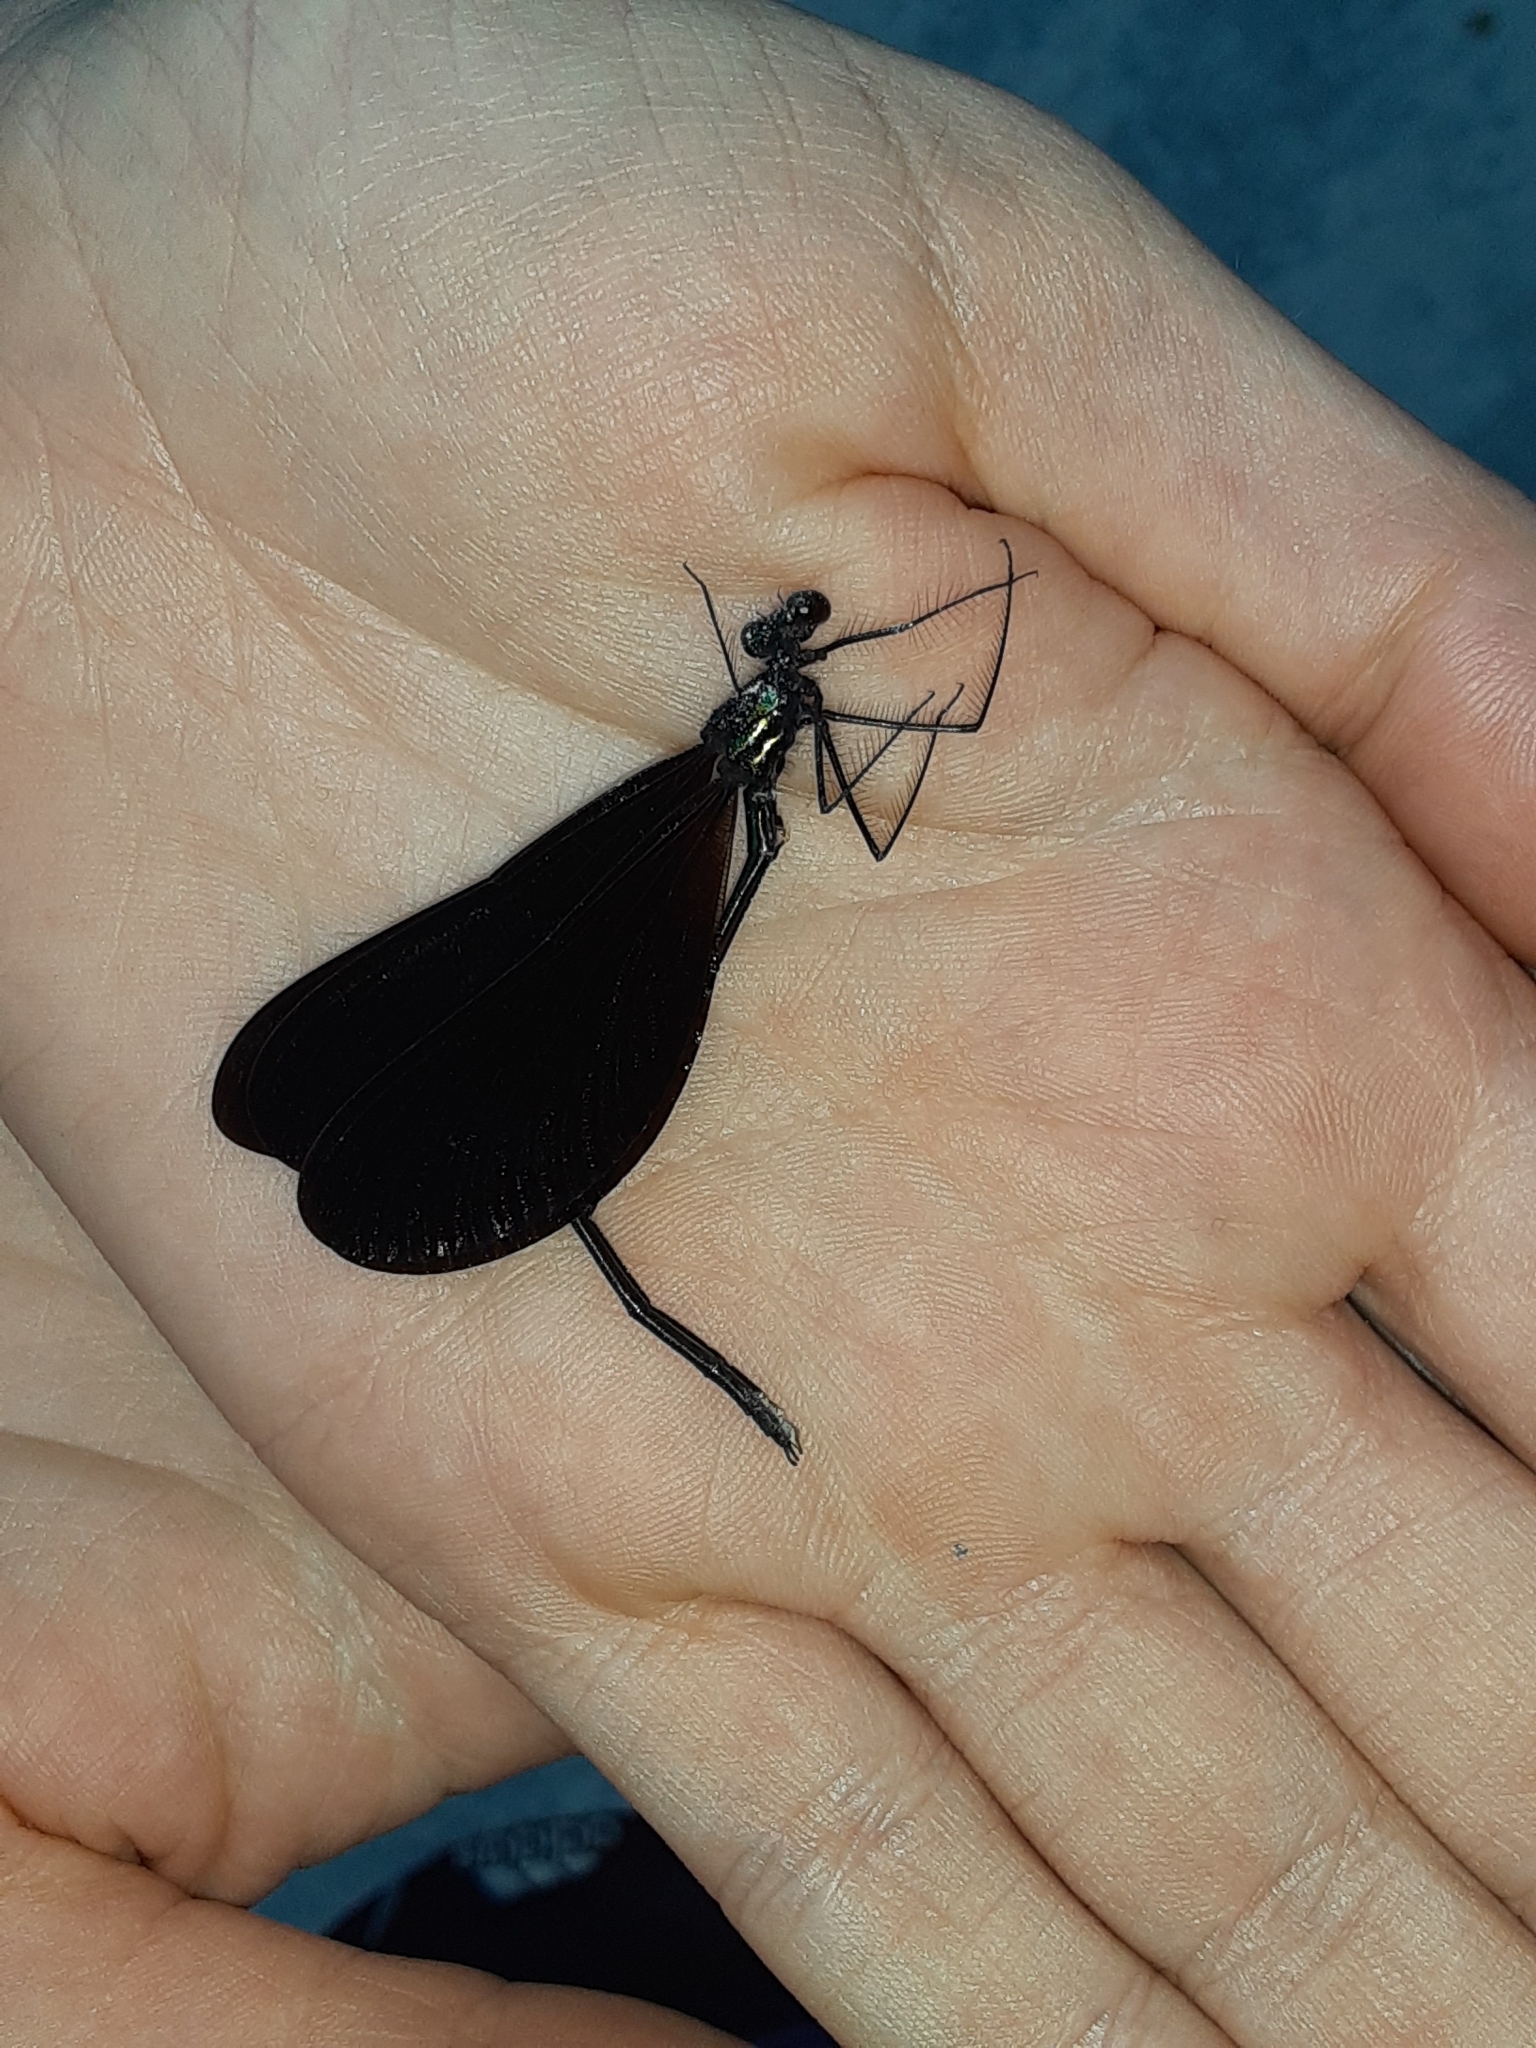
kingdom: Animalia
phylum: Arthropoda
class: Insecta
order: Odonata
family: Calopterygidae
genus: Calopteryx
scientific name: Calopteryx maculata
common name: Ebony jewelwing
